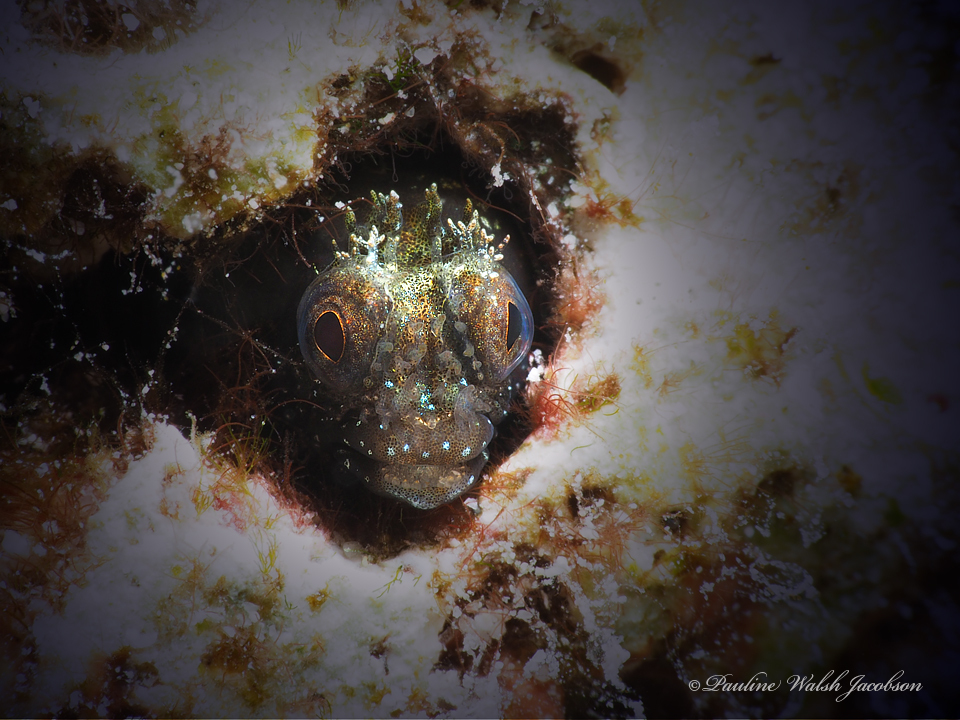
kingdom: Animalia
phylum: Chordata
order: Perciformes
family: Chaenopsidae
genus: Acanthemblemaria
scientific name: Acanthemblemaria medusa
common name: Medusa blenny
